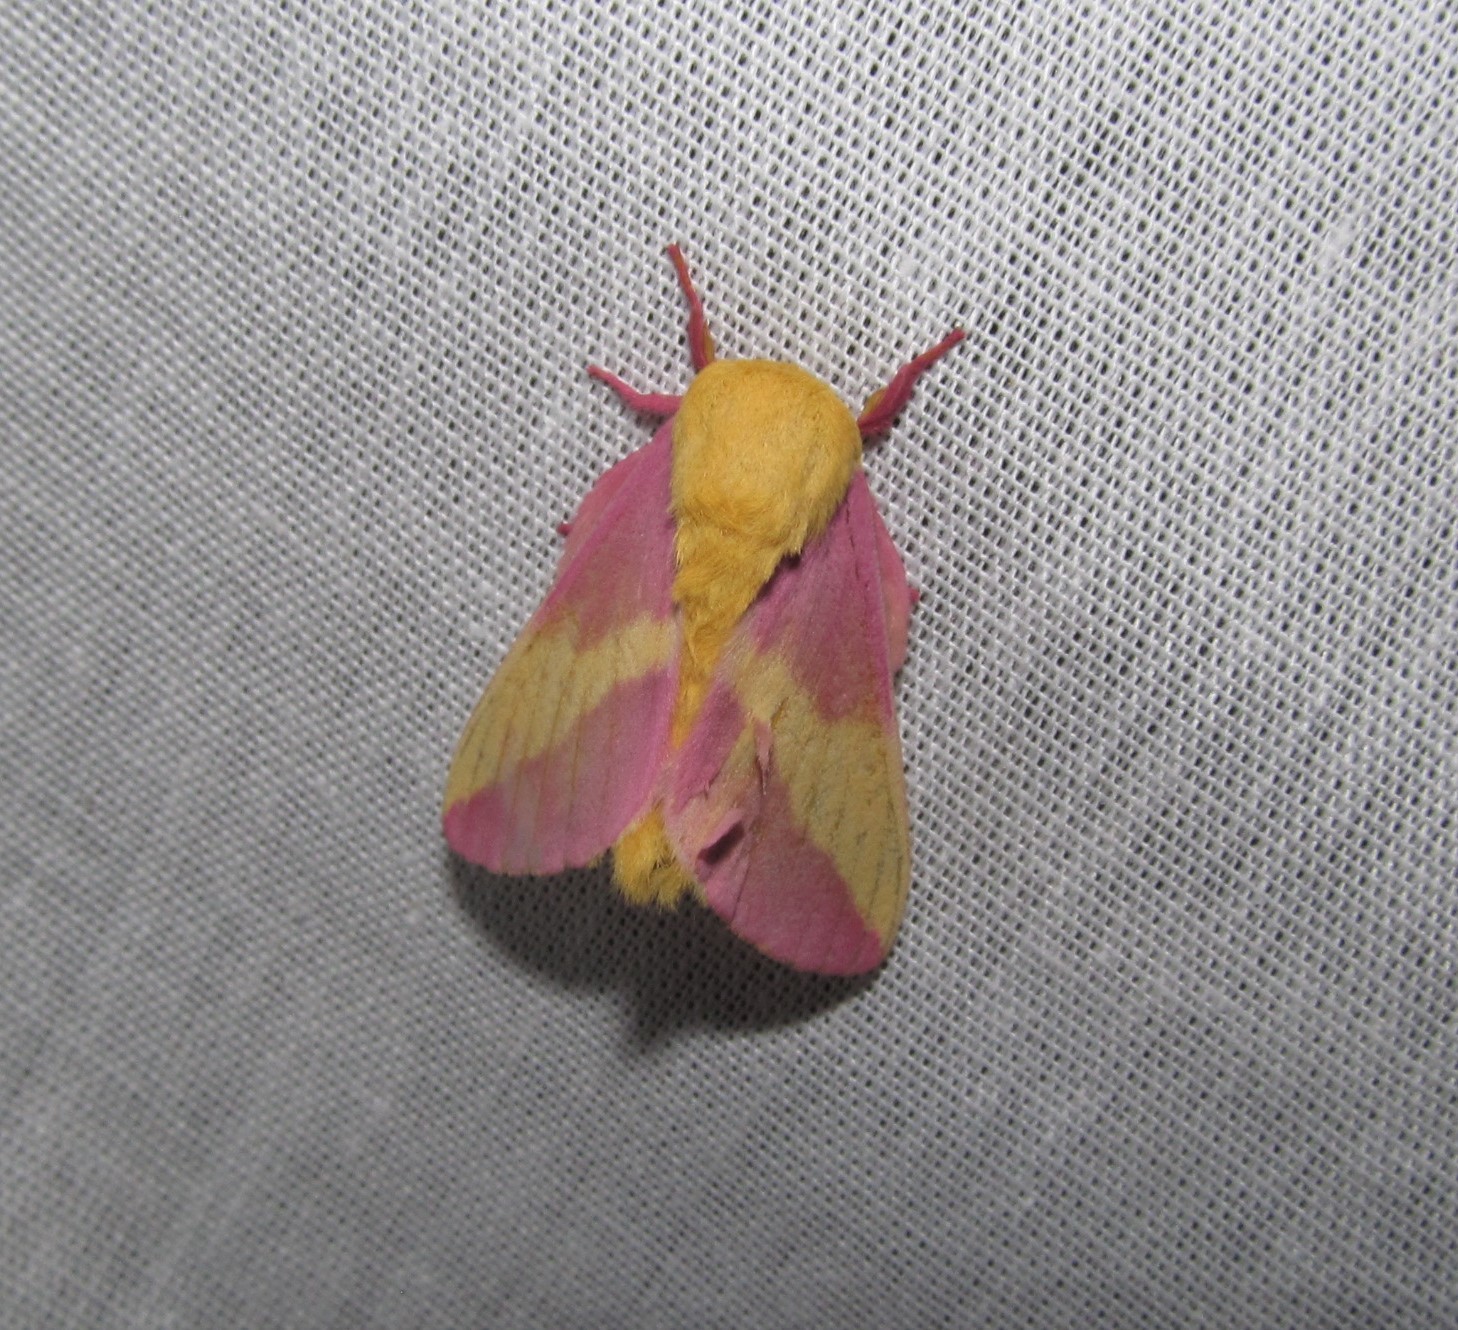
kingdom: Animalia
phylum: Arthropoda
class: Insecta
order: Lepidoptera
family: Saturniidae
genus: Dryocampa
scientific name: Dryocampa rubicunda
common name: Rosy maple moth
